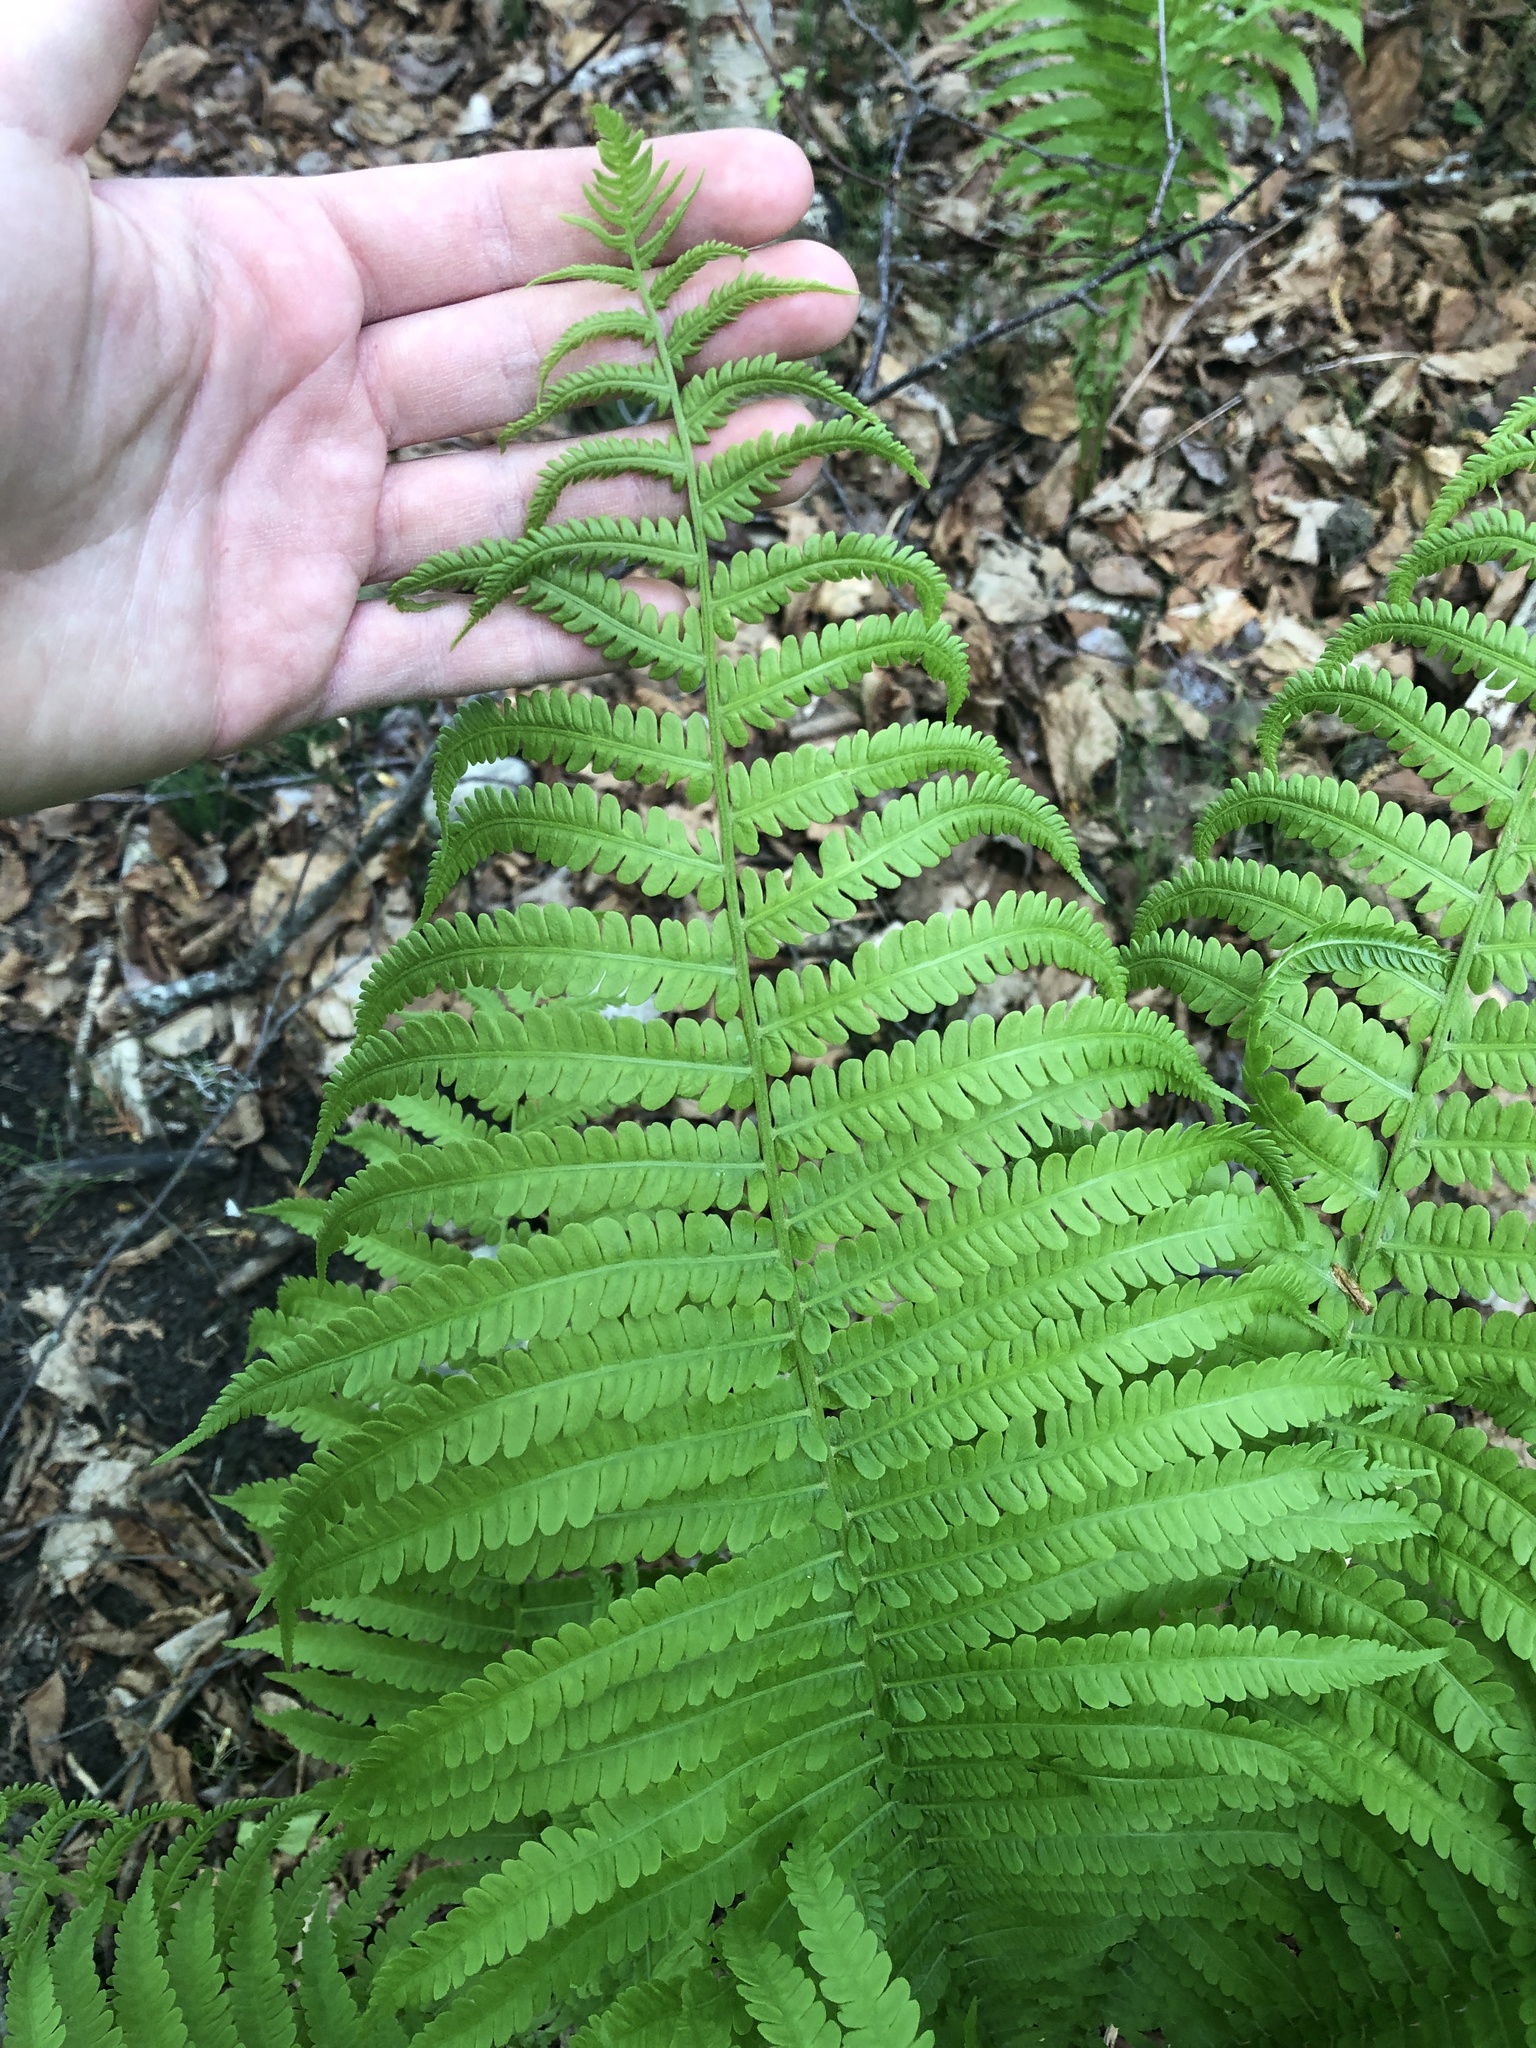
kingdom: Plantae
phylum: Tracheophyta
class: Polypodiopsida
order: Polypodiales
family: Onocleaceae
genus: Matteuccia
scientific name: Matteuccia struthiopteris
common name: Ostrich fern
